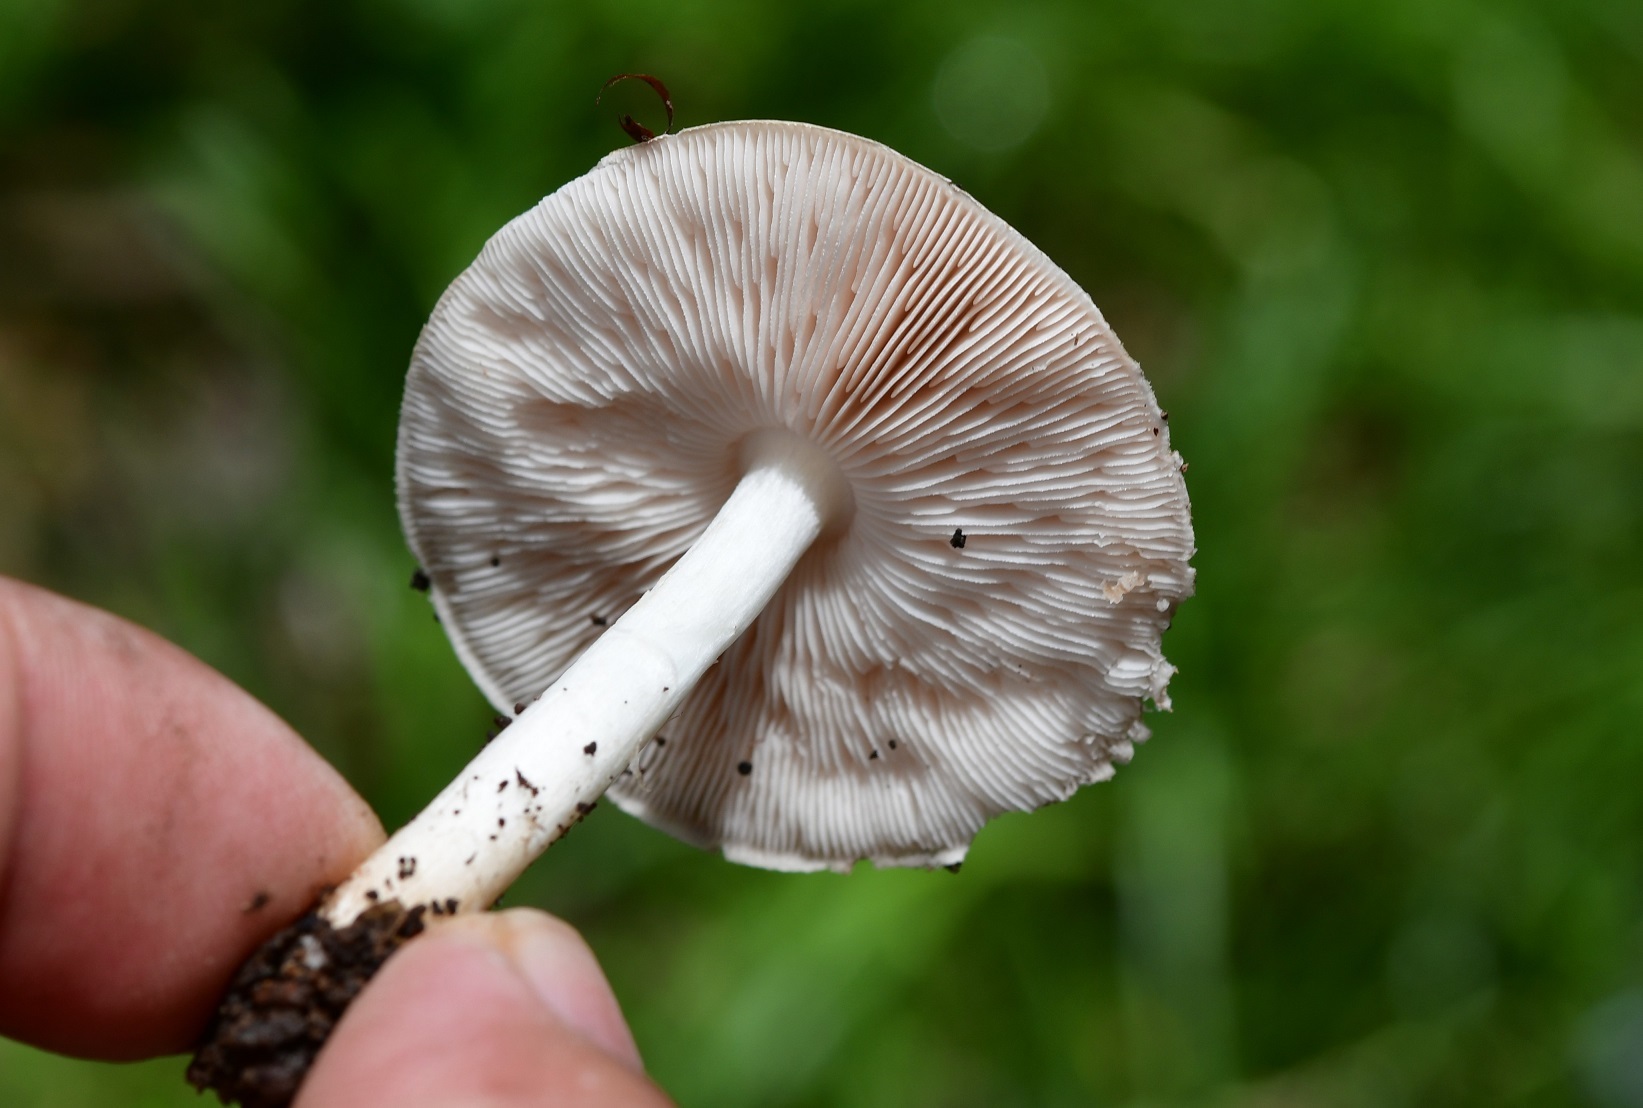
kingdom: Fungi
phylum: Basidiomycota
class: Agaricomycetes
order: Agaricales
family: Pluteaceae
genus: Pluteus
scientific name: Pluteus cervinus
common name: Deer shield
